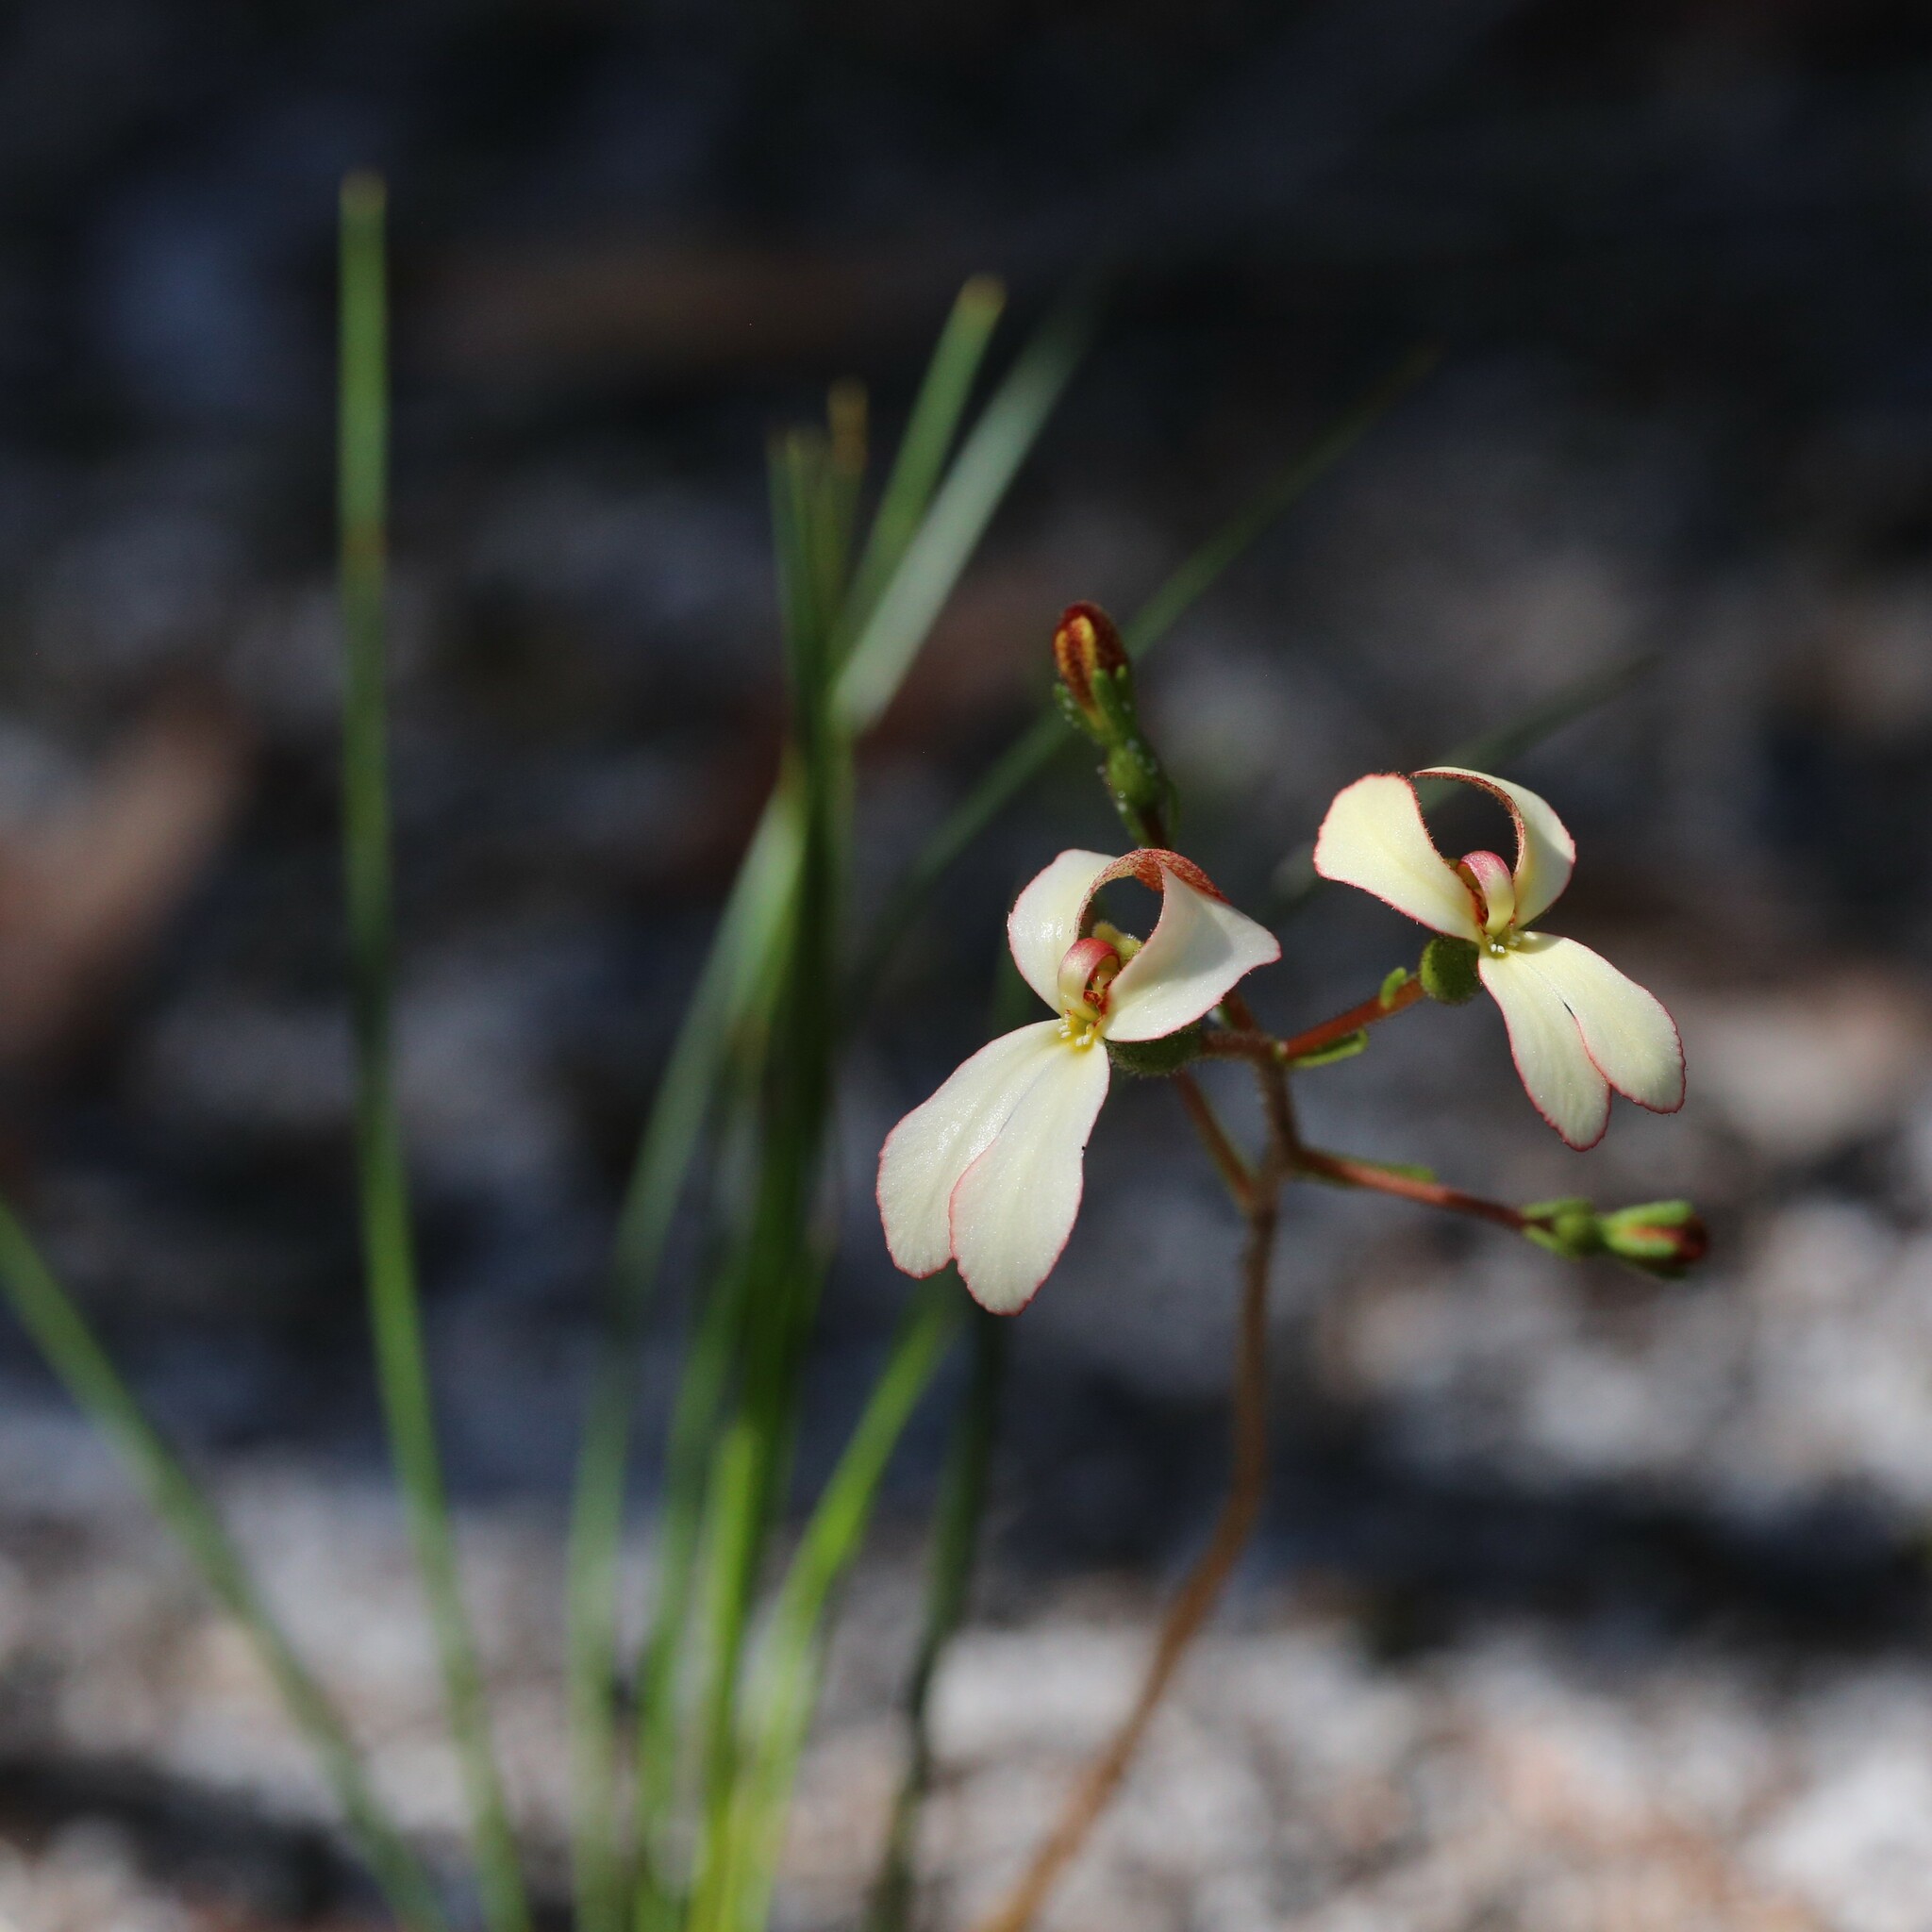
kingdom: Plantae
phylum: Tracheophyta
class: Magnoliopsida
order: Asterales
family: Stylidiaceae
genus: Stylidium
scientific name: Stylidium schoenoides
